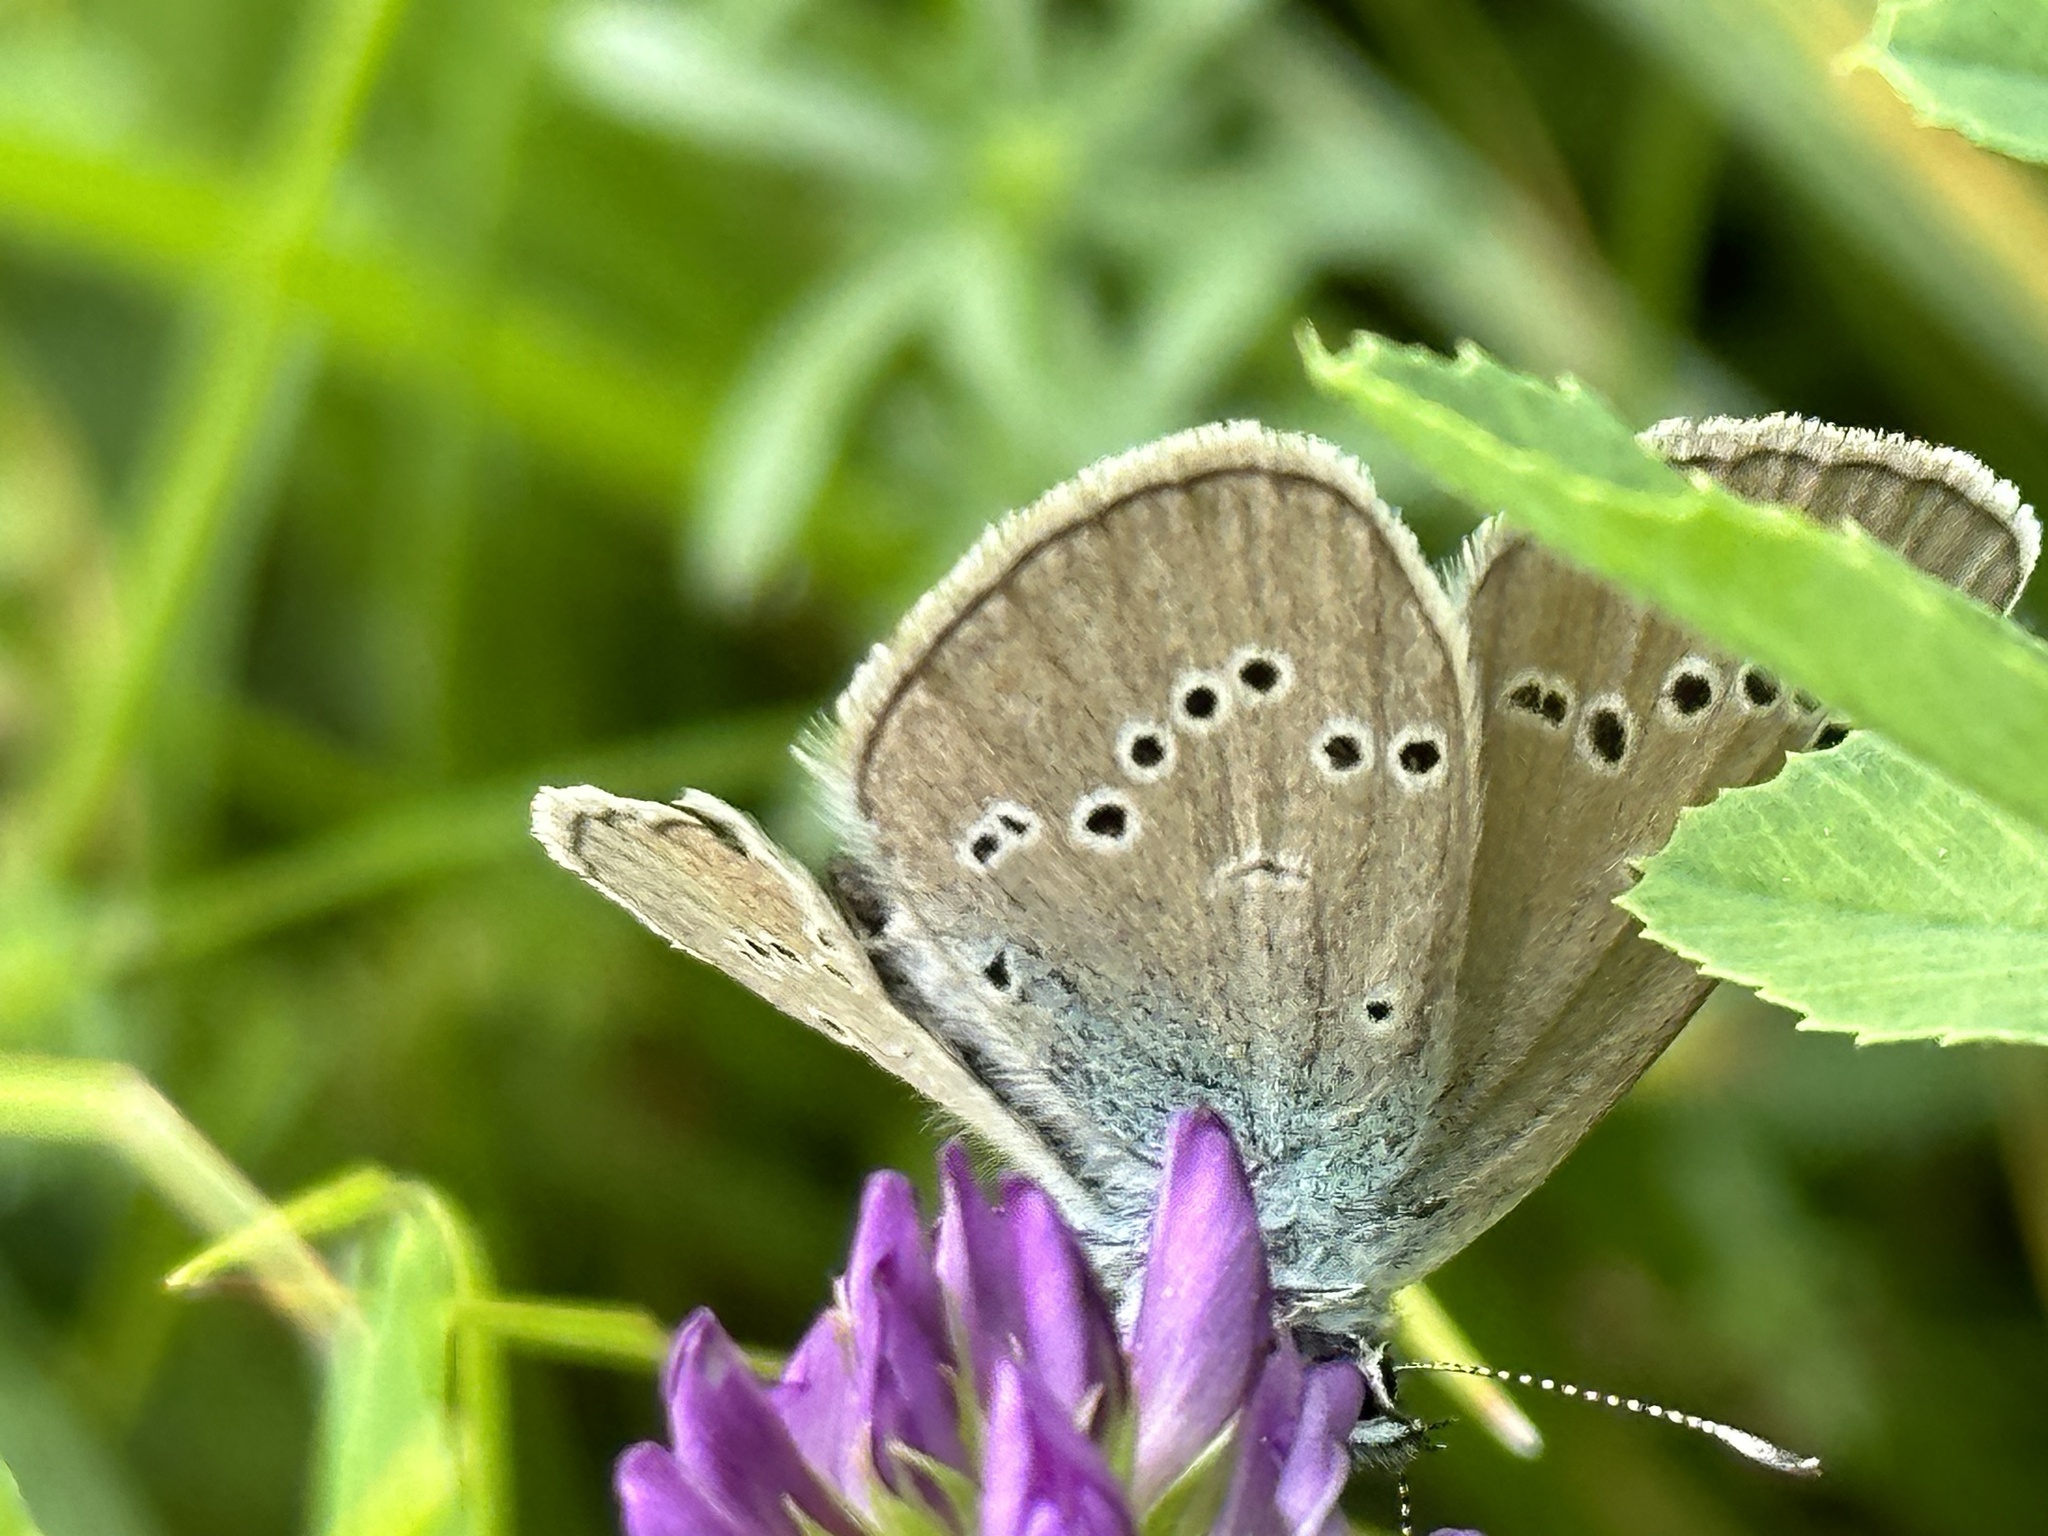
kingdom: Animalia
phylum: Arthropoda
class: Insecta
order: Lepidoptera
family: Lycaenidae
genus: Cyaniris
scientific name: Cyaniris semiargus
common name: Mazarine blue
